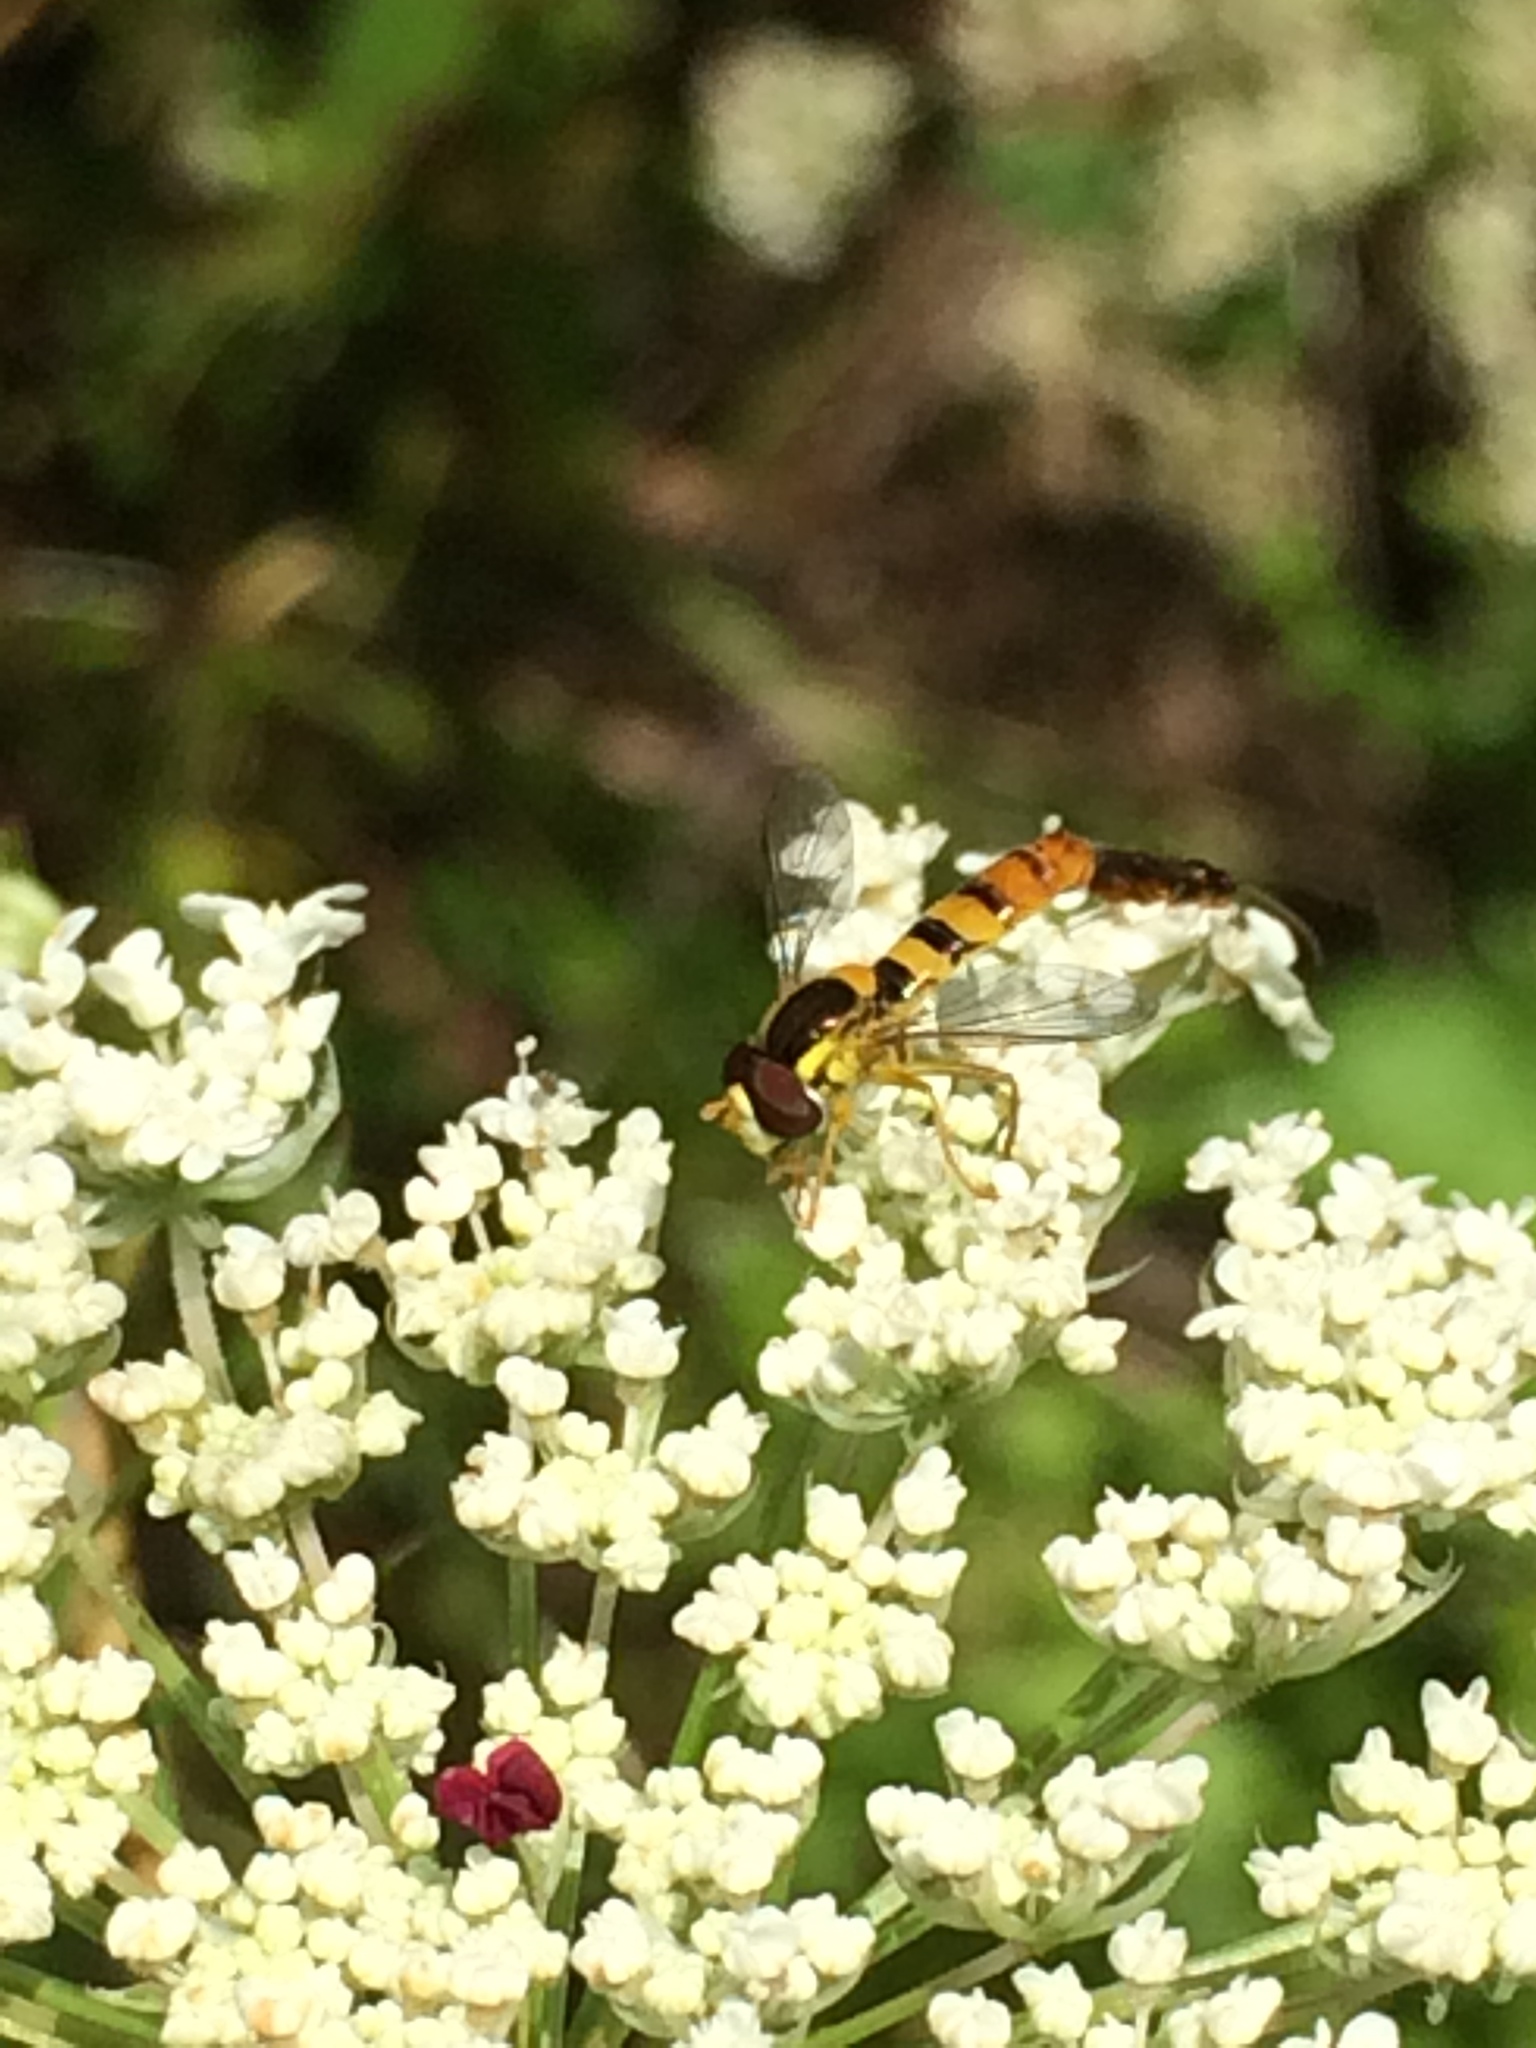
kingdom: Animalia
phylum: Arthropoda
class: Insecta
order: Diptera
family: Syrphidae
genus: Sphaerophoria
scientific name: Sphaerophoria
